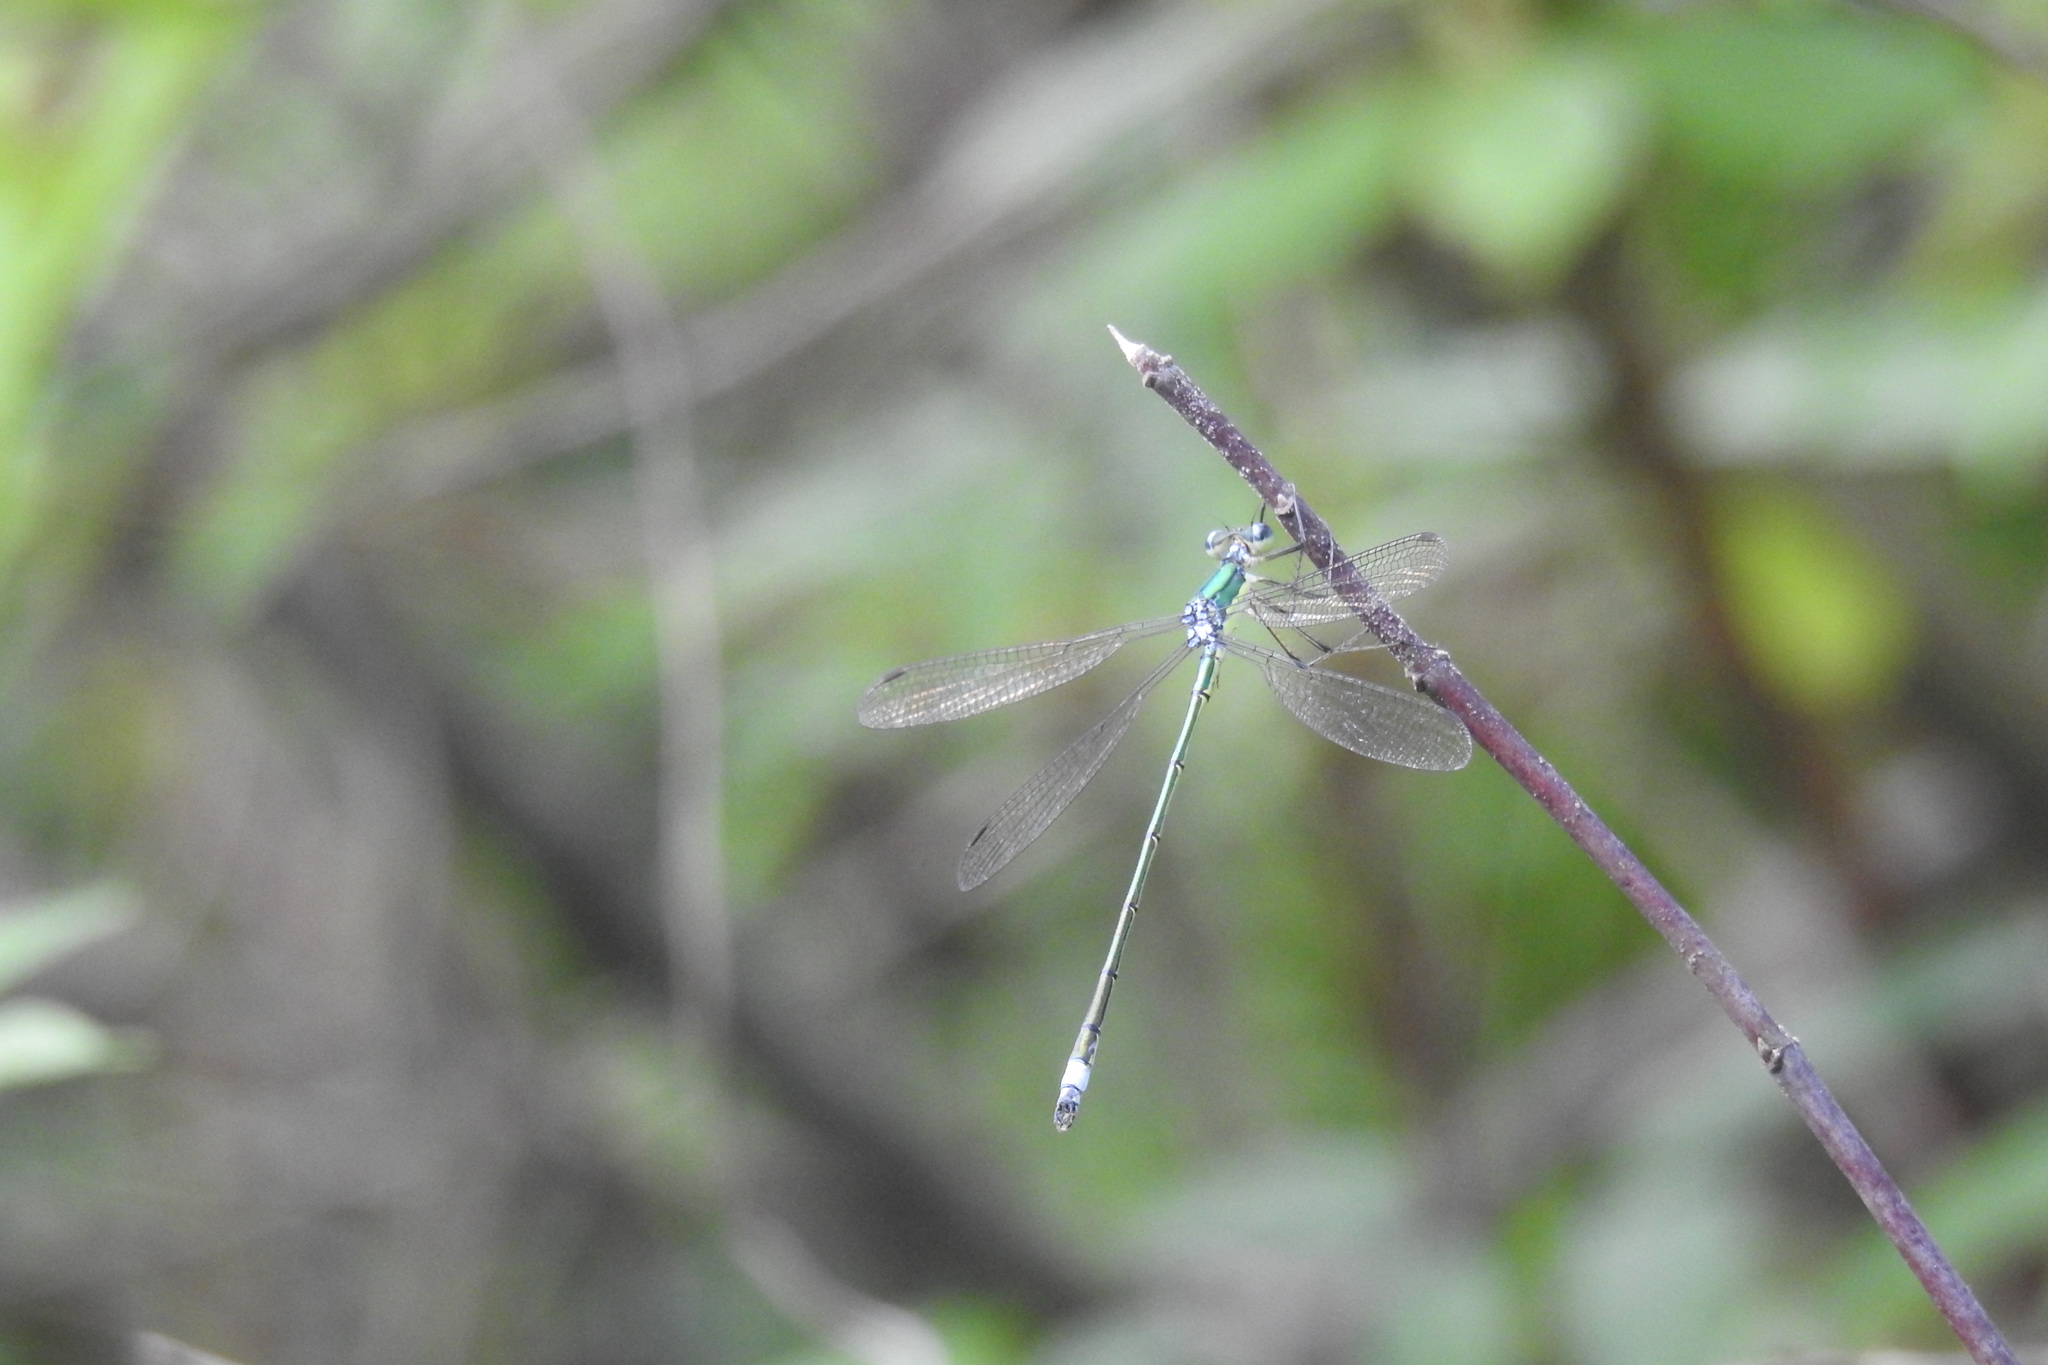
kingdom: Animalia
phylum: Arthropoda
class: Insecta
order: Odonata
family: Lestidae
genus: Lestes
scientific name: Lestes dryas
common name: Scarce emerald damselfly
